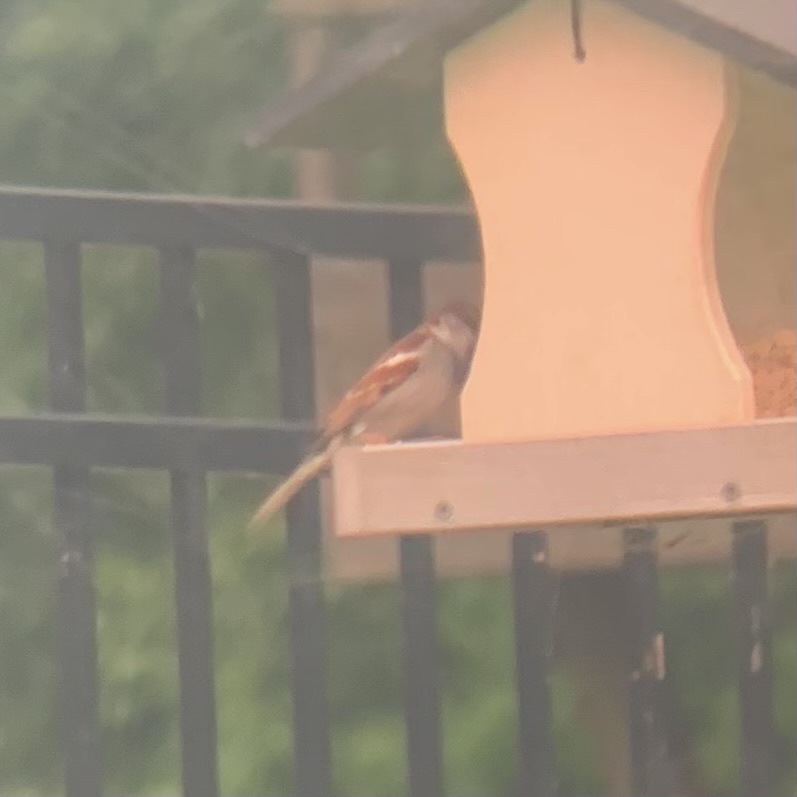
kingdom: Animalia
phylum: Chordata
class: Aves
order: Passeriformes
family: Passeridae
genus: Passer
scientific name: Passer domesticus
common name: House sparrow
